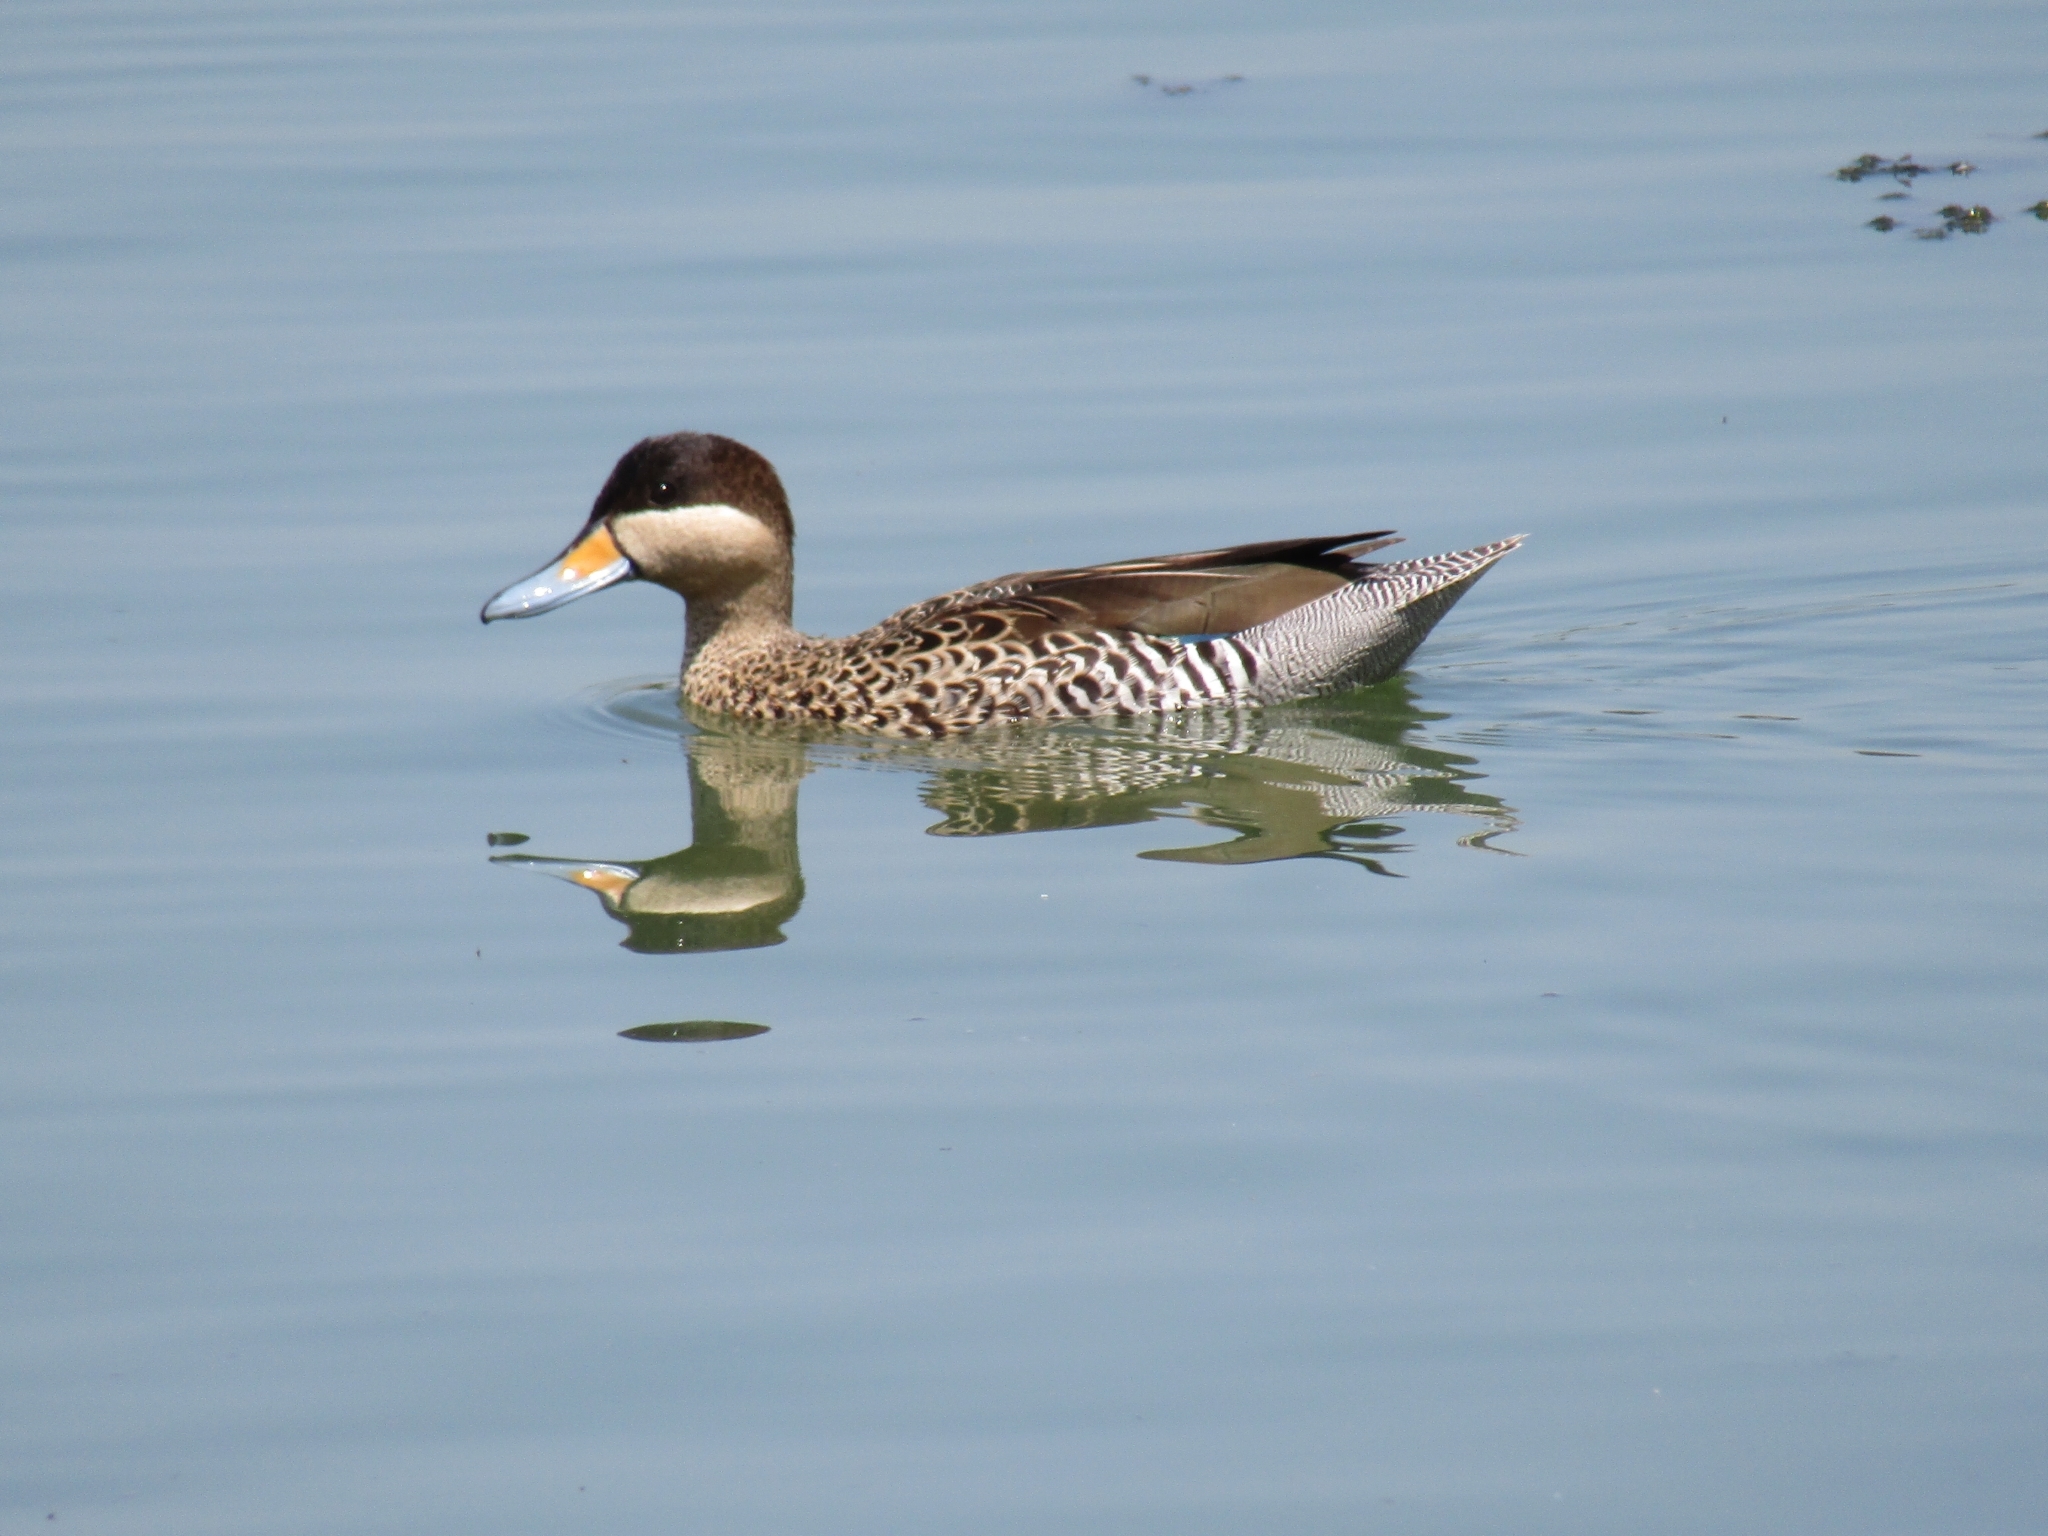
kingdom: Animalia
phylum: Chordata
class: Aves
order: Anseriformes
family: Anatidae
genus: Spatula
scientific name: Spatula versicolor
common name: Silver teal
